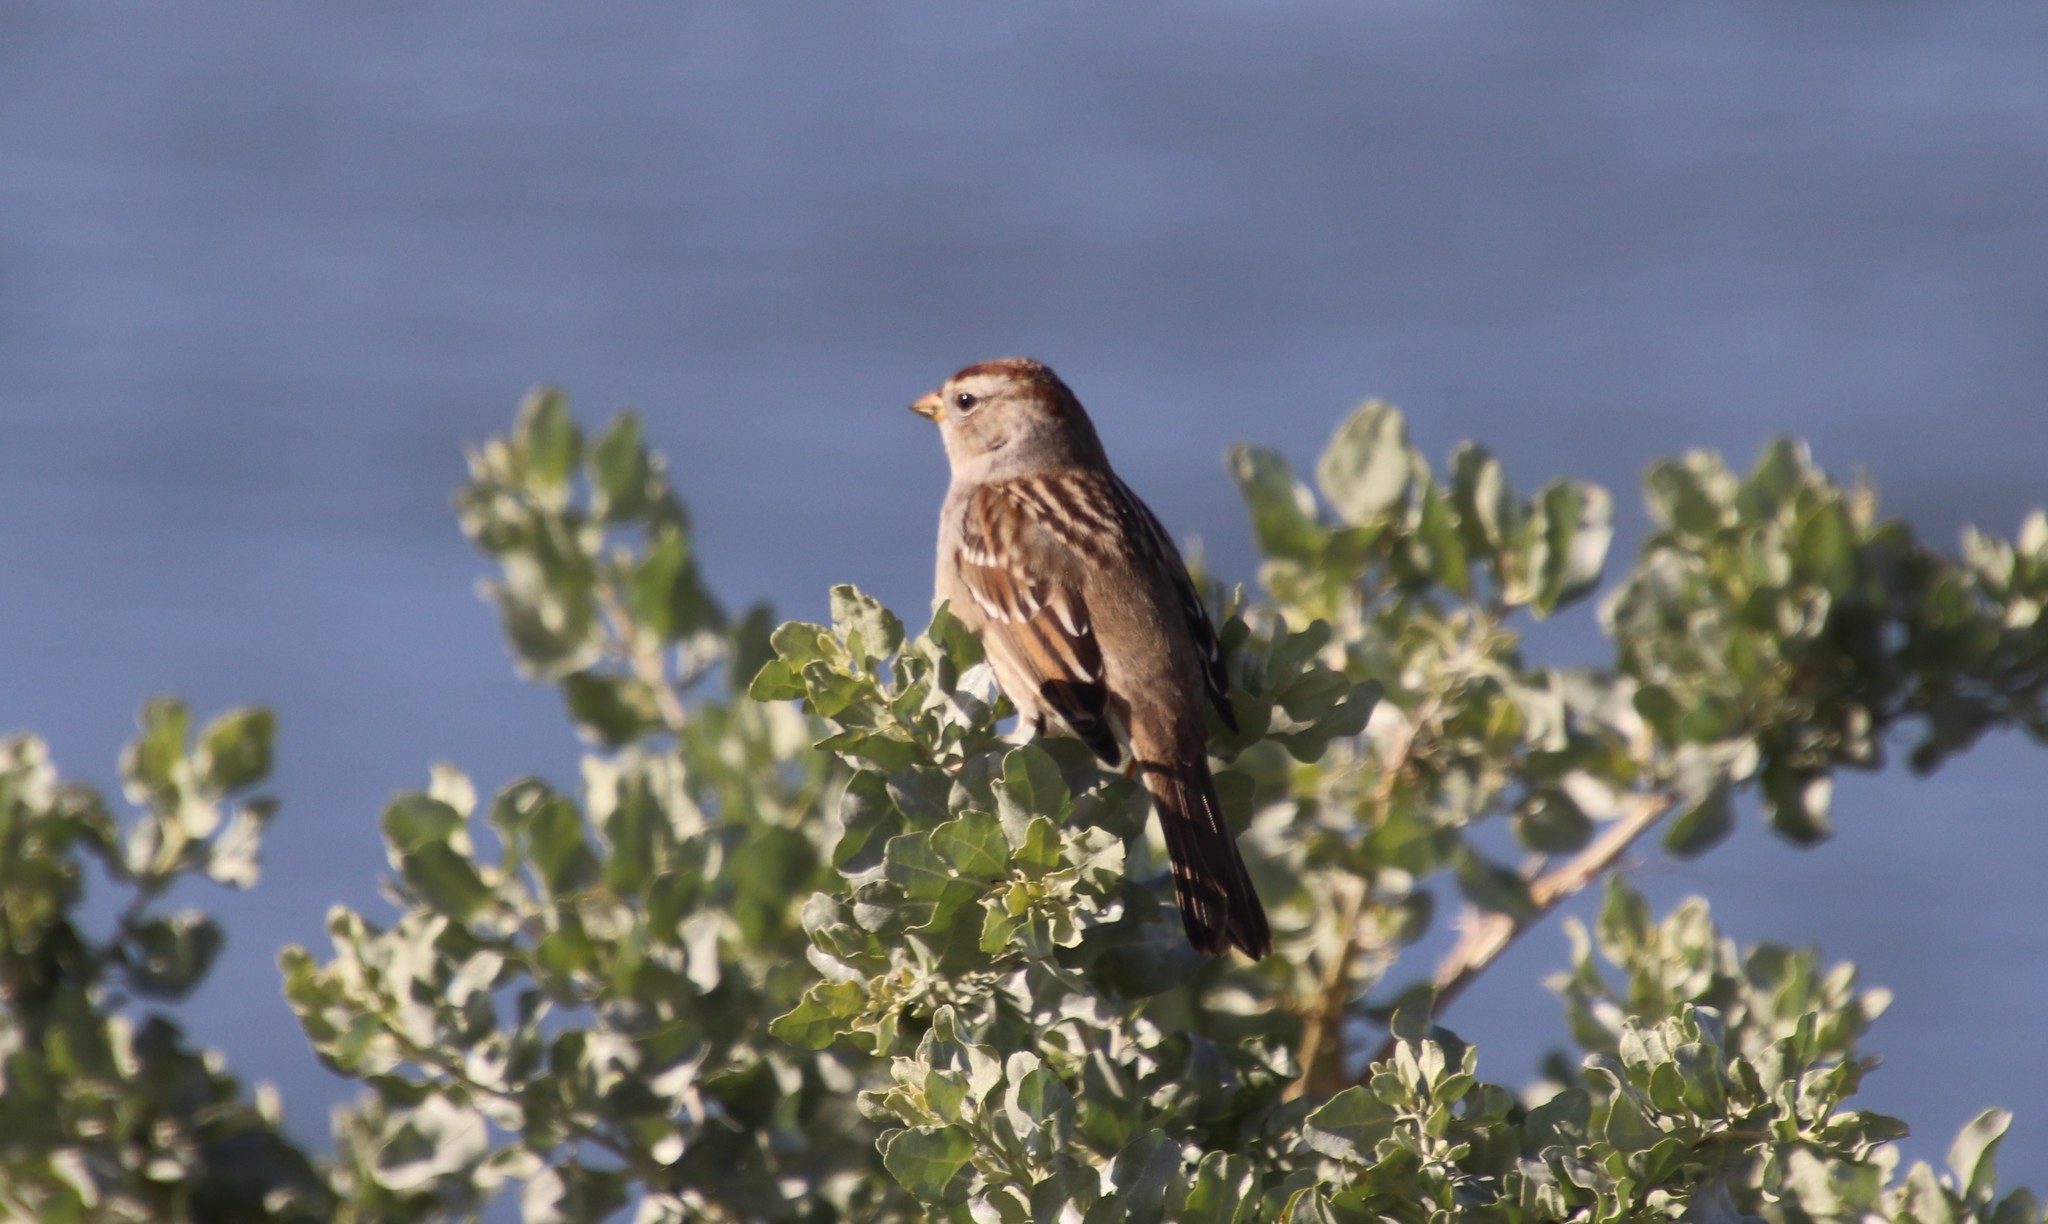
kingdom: Animalia
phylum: Chordata
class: Aves
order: Passeriformes
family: Passerellidae
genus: Zonotrichia
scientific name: Zonotrichia leucophrys
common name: White-crowned sparrow
